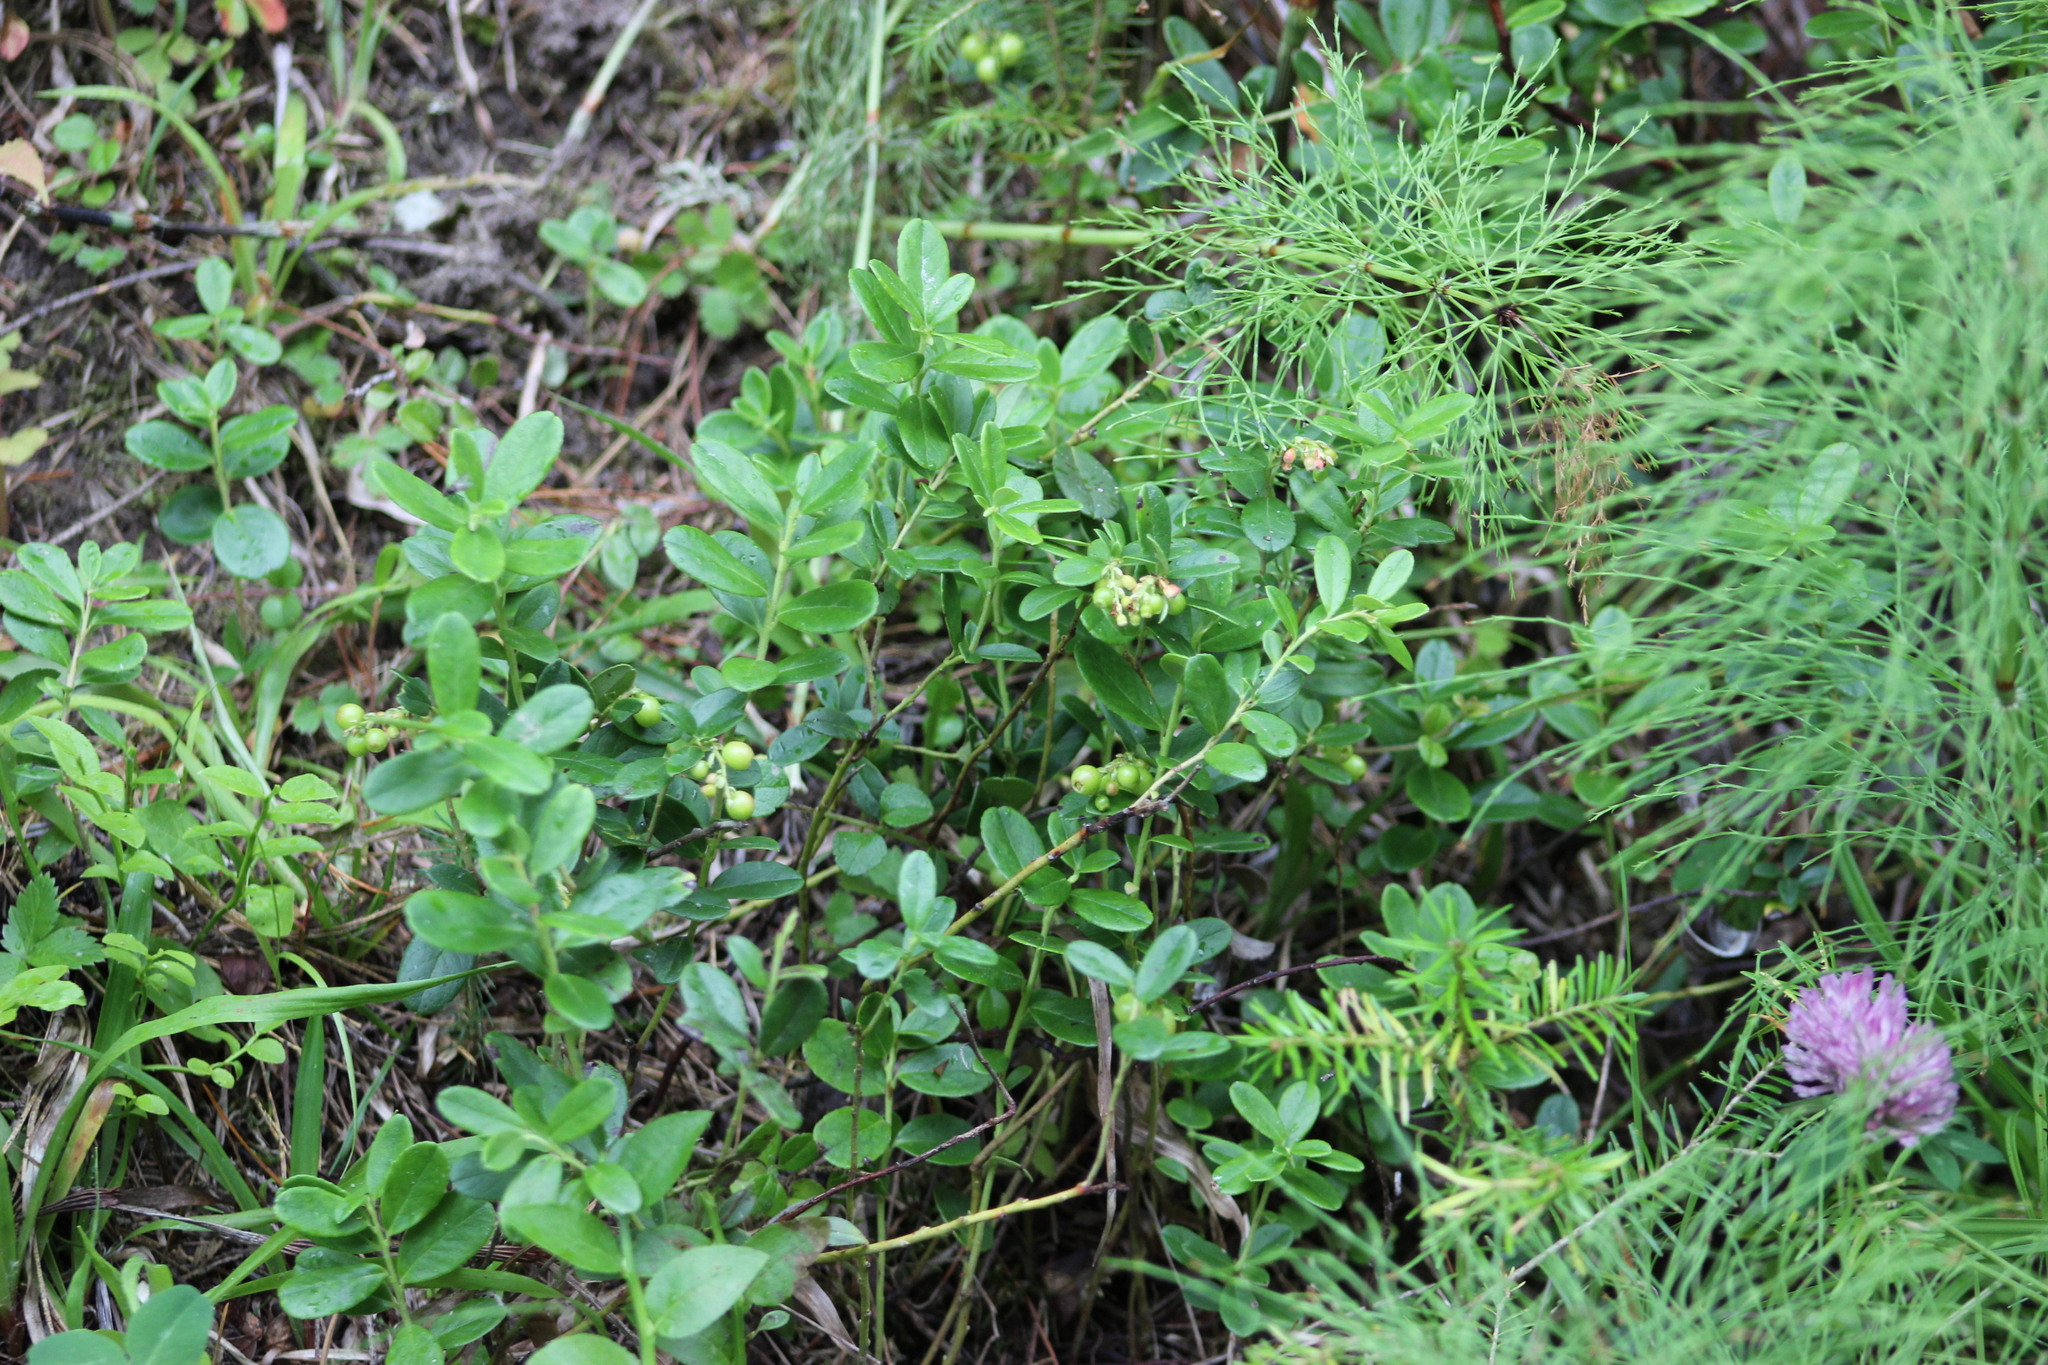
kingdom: Plantae
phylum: Tracheophyta
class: Magnoliopsida
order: Ericales
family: Ericaceae
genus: Vaccinium
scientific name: Vaccinium vitis-idaea
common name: Cowberry
